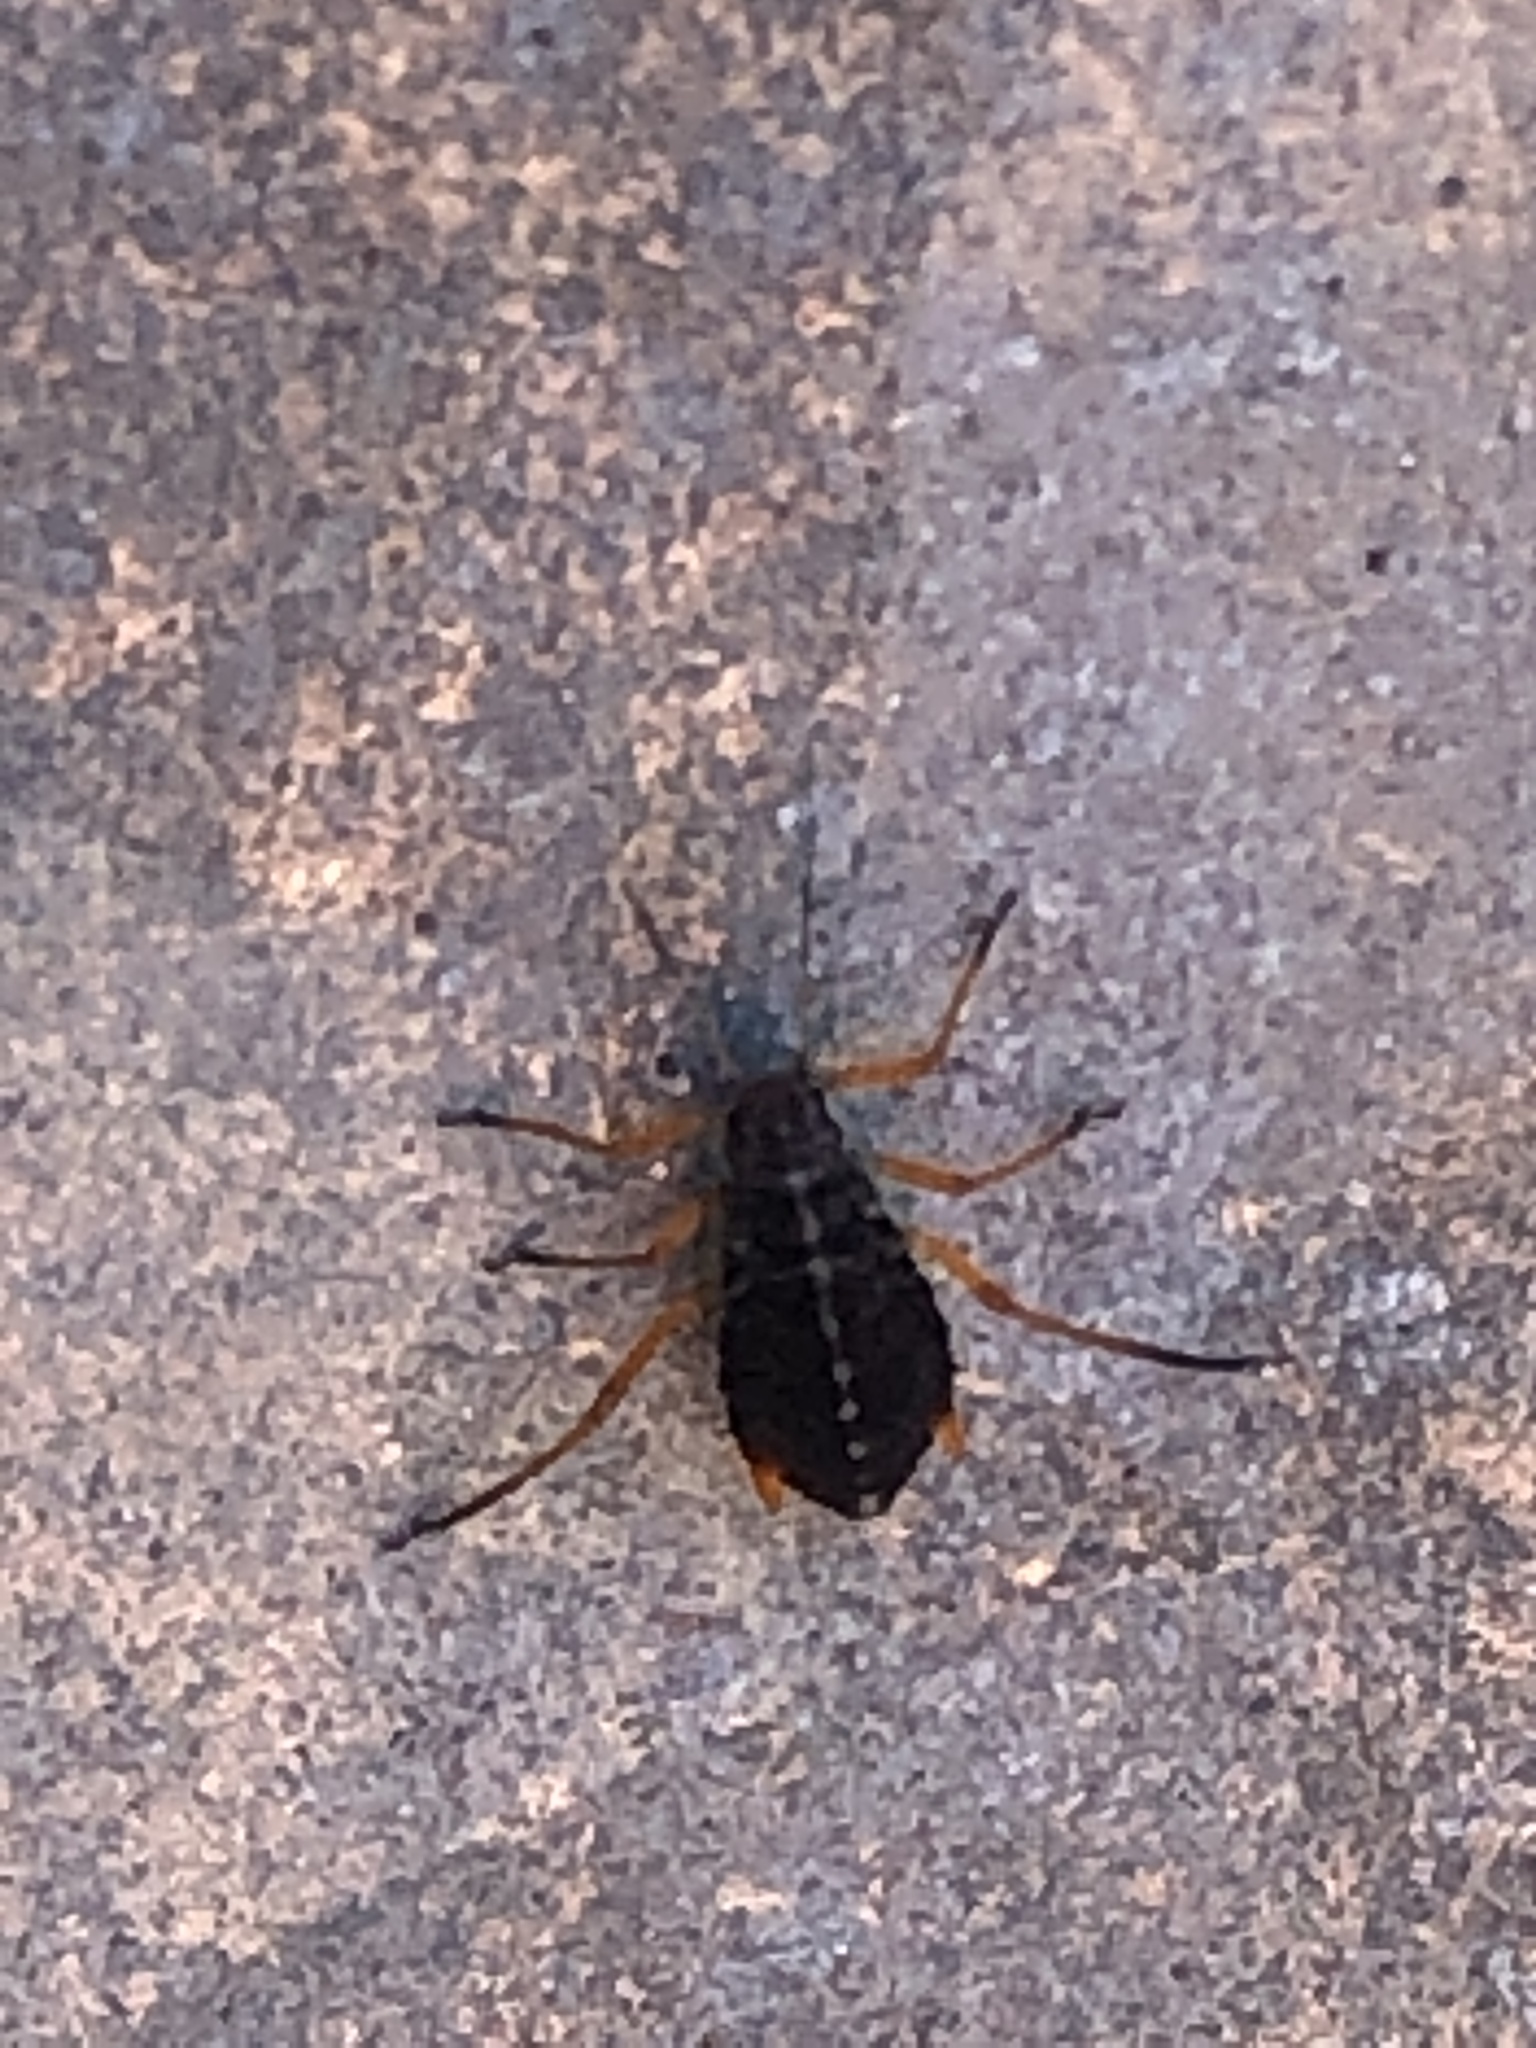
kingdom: Animalia
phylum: Arthropoda
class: Insecta
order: Hemiptera
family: Aphididae
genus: Pterocomma
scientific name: Pterocomma smithiae
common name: Black willow aphid
